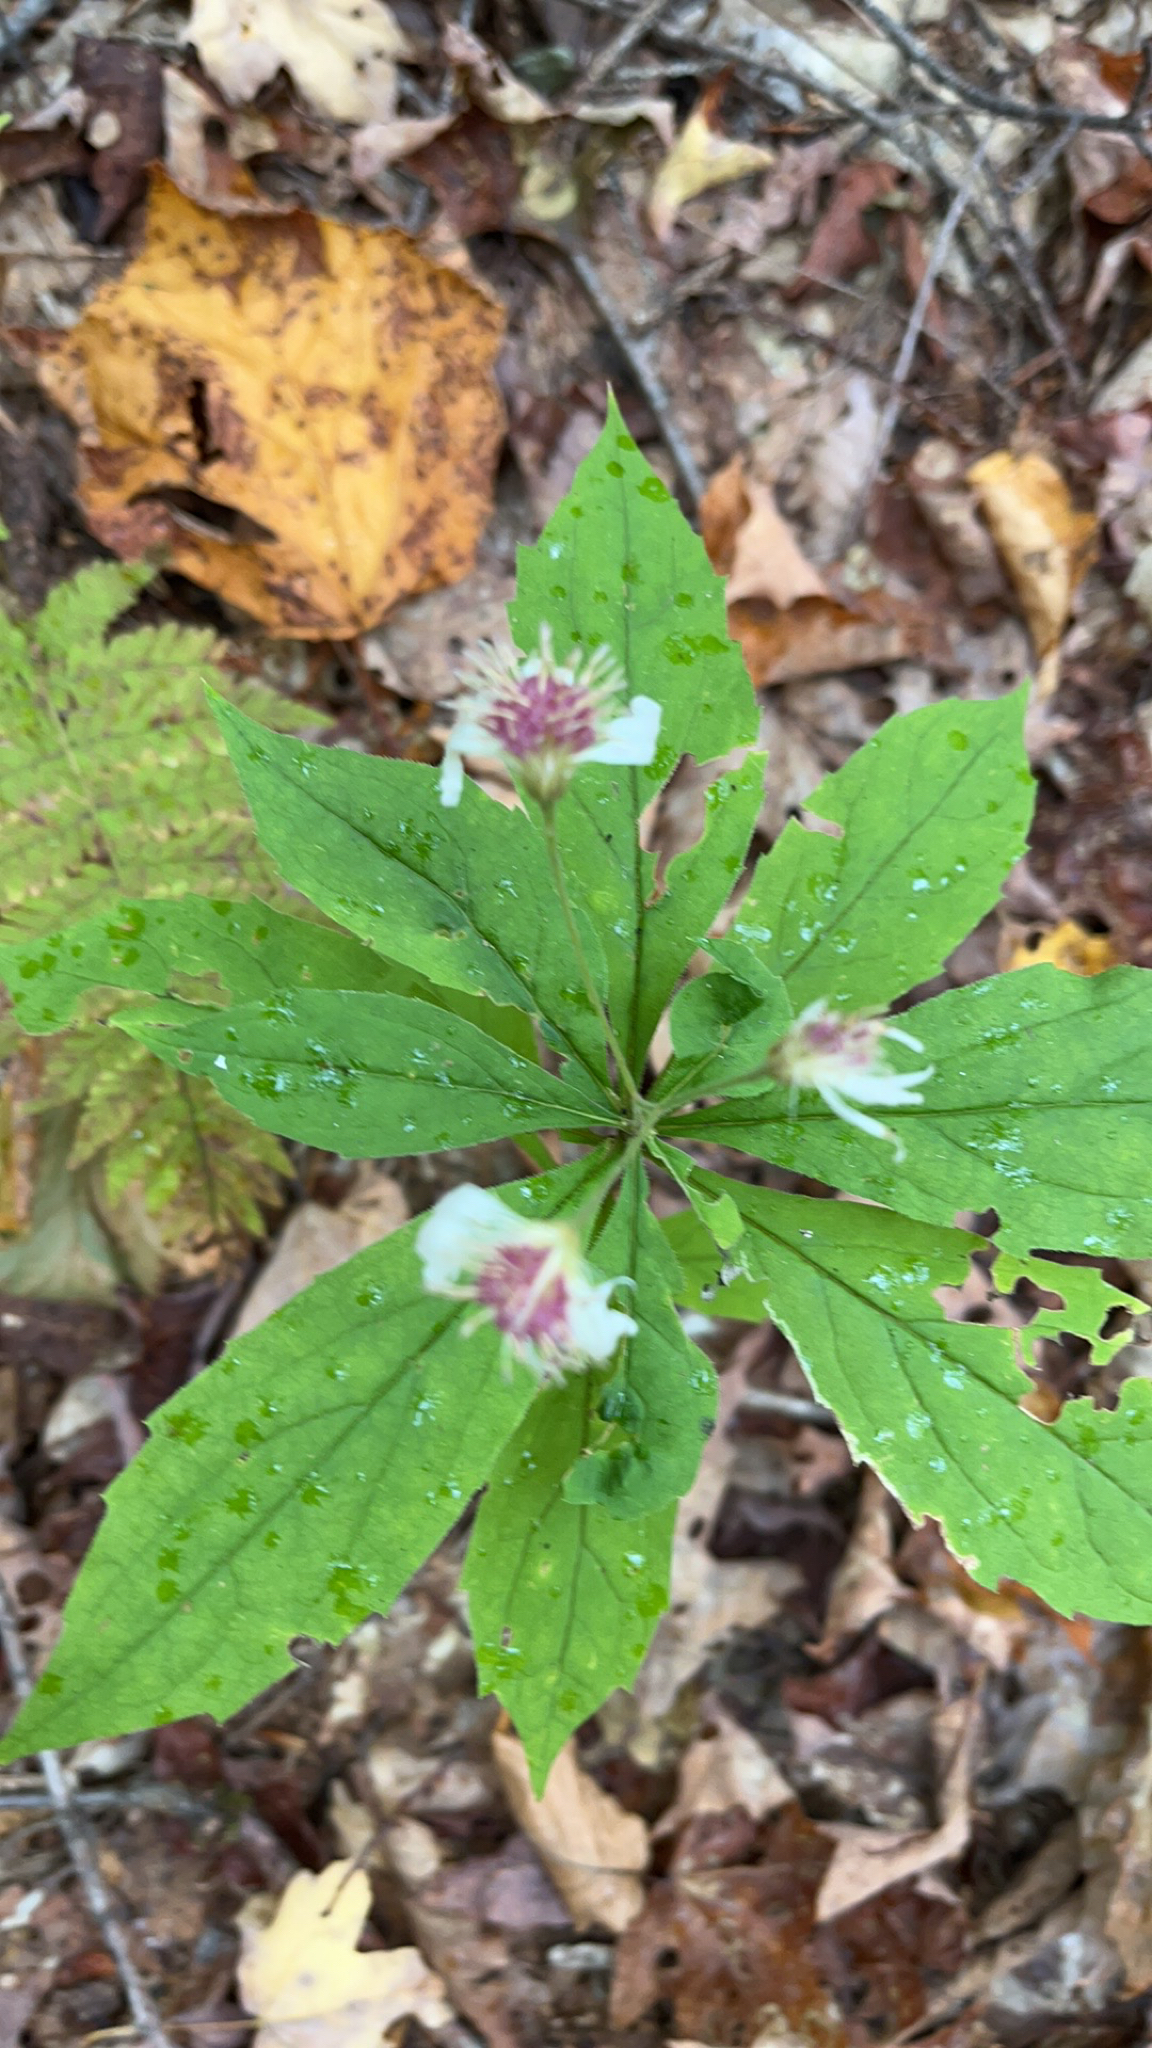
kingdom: Plantae
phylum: Tracheophyta
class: Magnoliopsida
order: Asterales
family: Asteraceae
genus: Oclemena
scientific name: Oclemena acuminata
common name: Mountain aster
